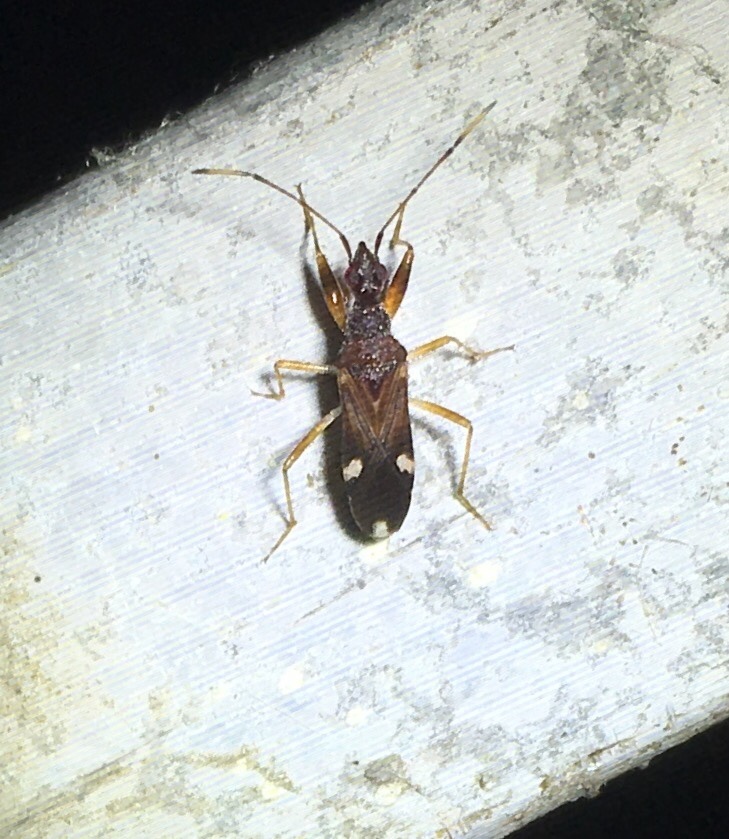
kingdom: Animalia
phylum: Arthropoda
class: Insecta
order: Hemiptera
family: Rhyparochromidae
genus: Heraeus
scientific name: Heraeus triguttatus
